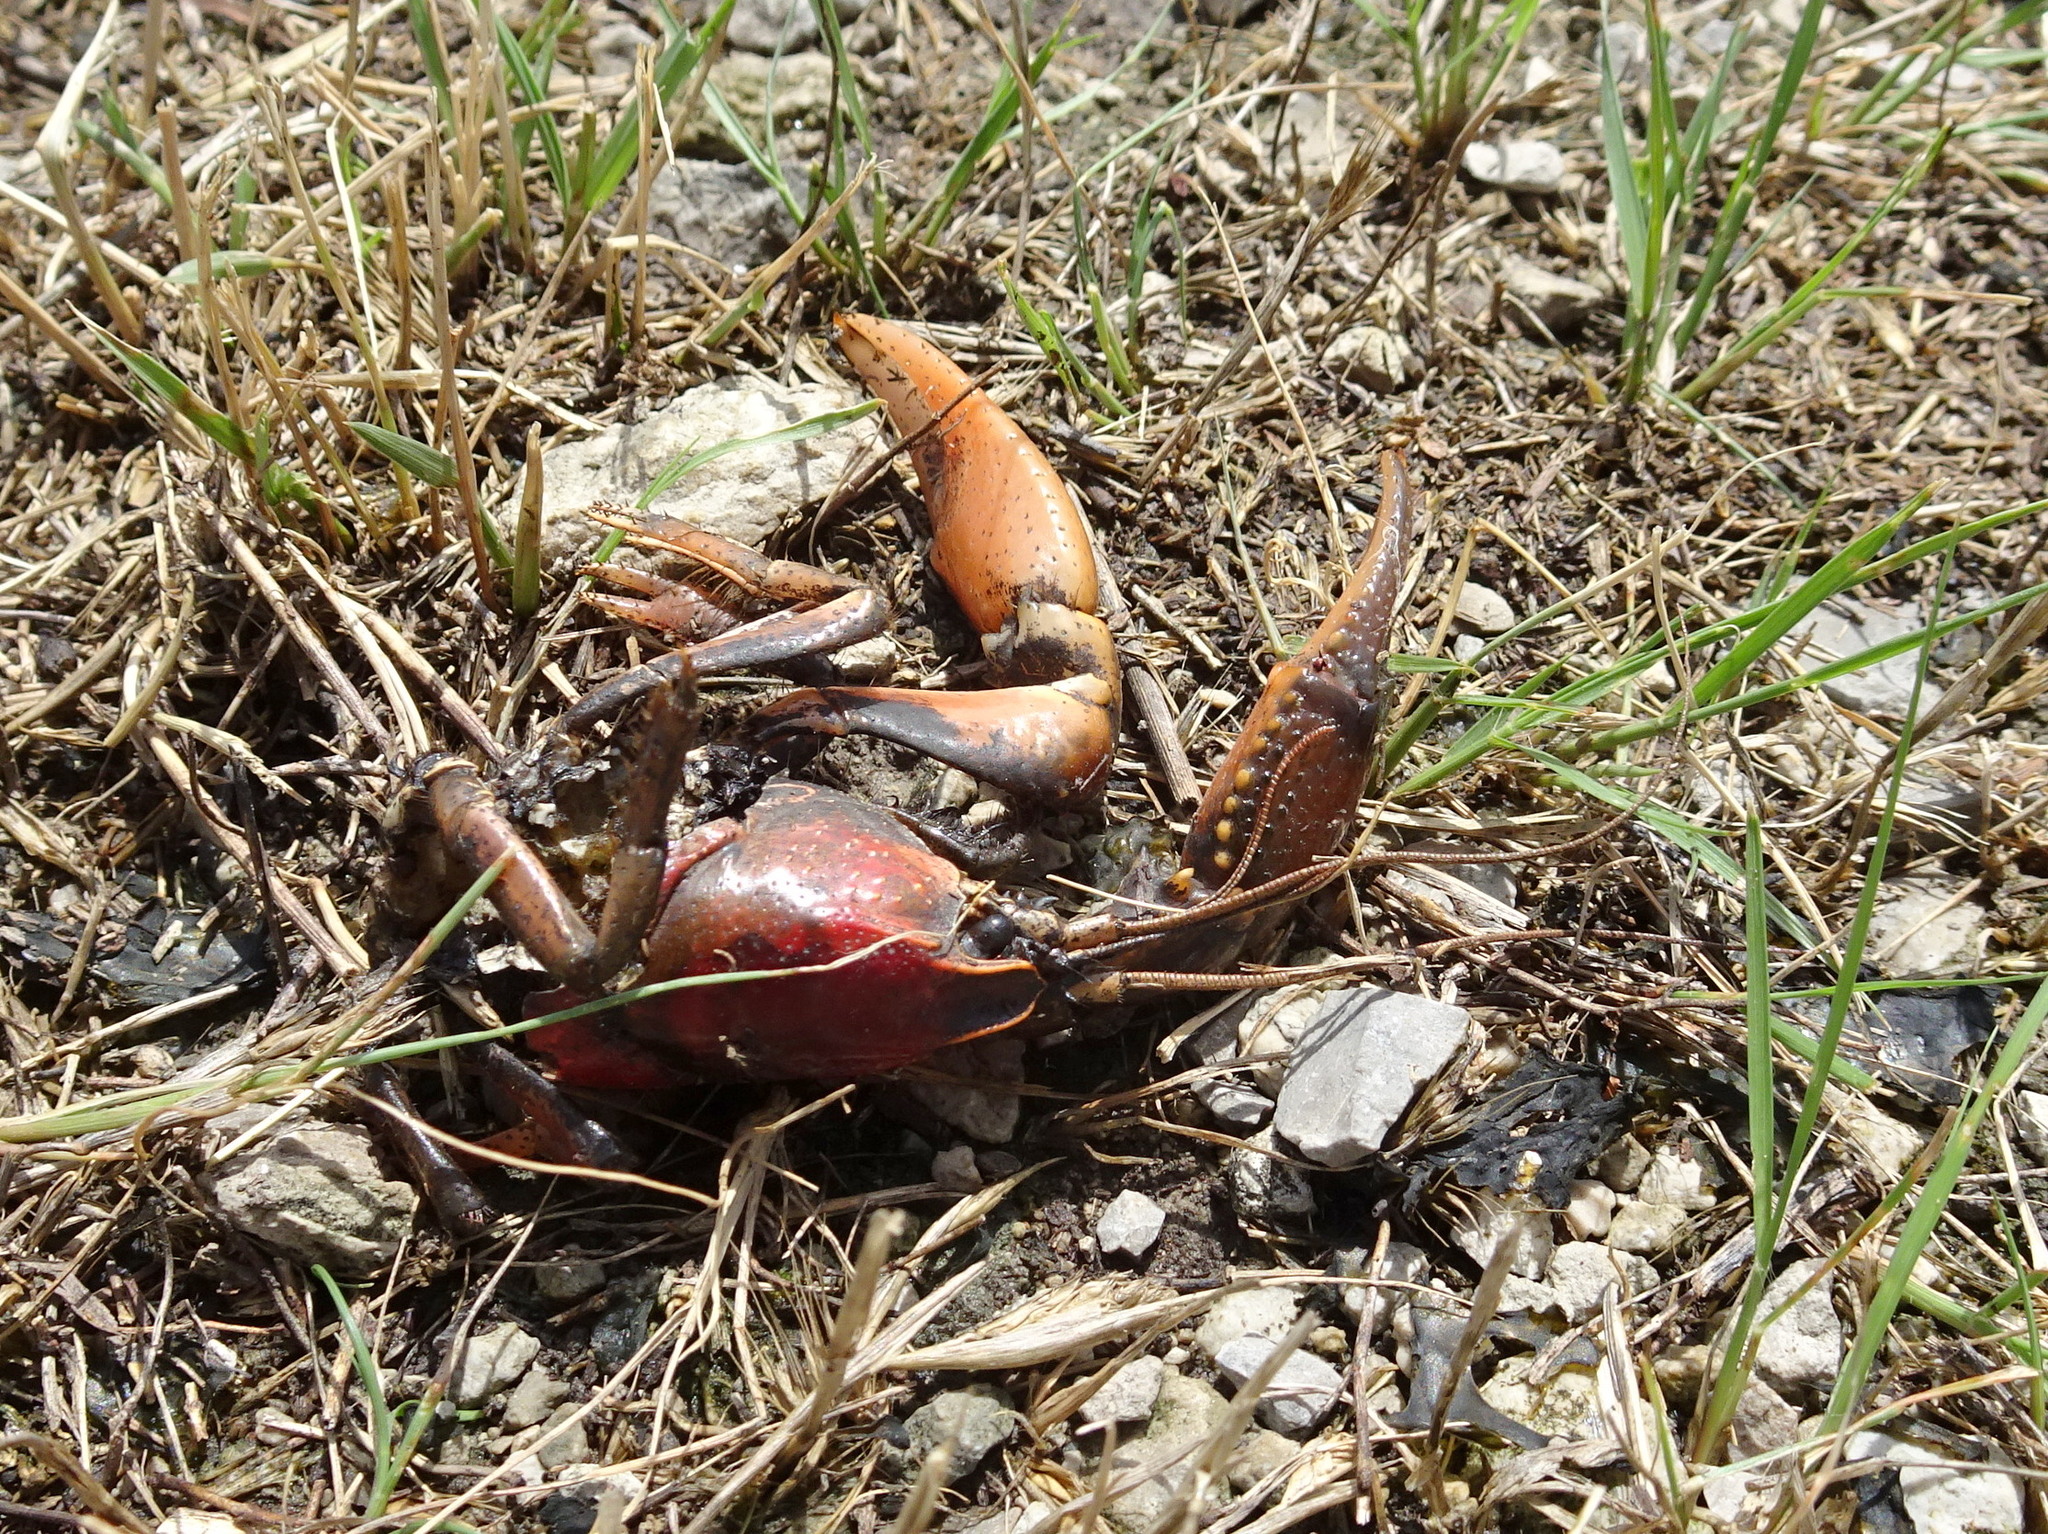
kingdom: Animalia
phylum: Arthropoda
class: Malacostraca
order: Decapoda
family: Cambaridae
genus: Procambarus
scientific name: Procambarus gracilis
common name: Prairie crayfish
